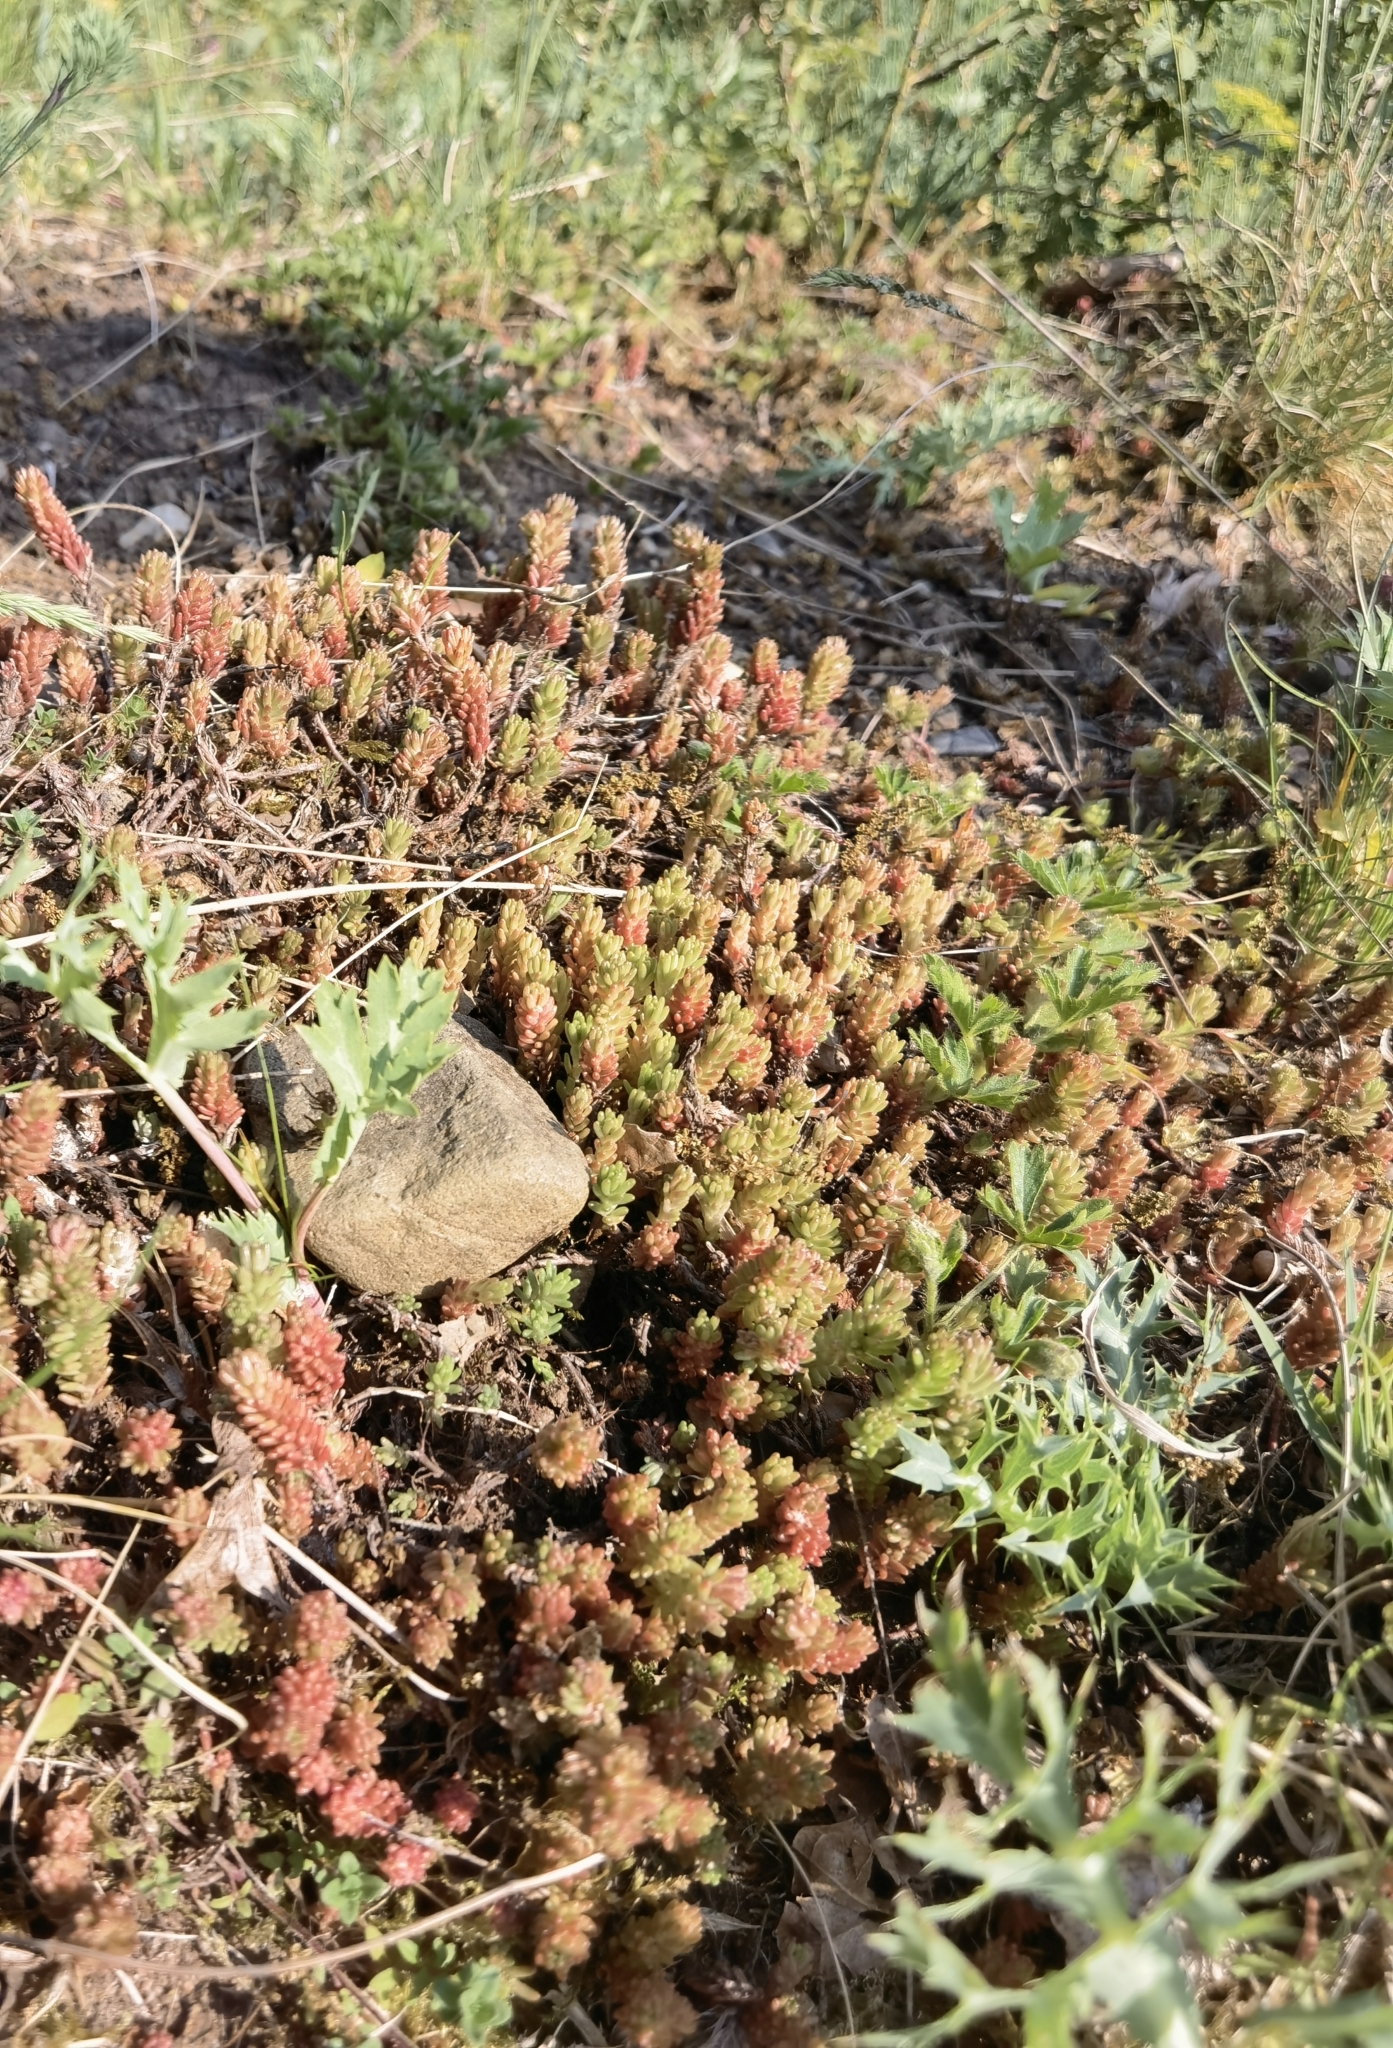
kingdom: Plantae
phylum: Tracheophyta
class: Magnoliopsida
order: Saxifragales
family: Crassulaceae
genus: Sedum
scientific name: Sedum sexangulare
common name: Tasteless stonecrop
